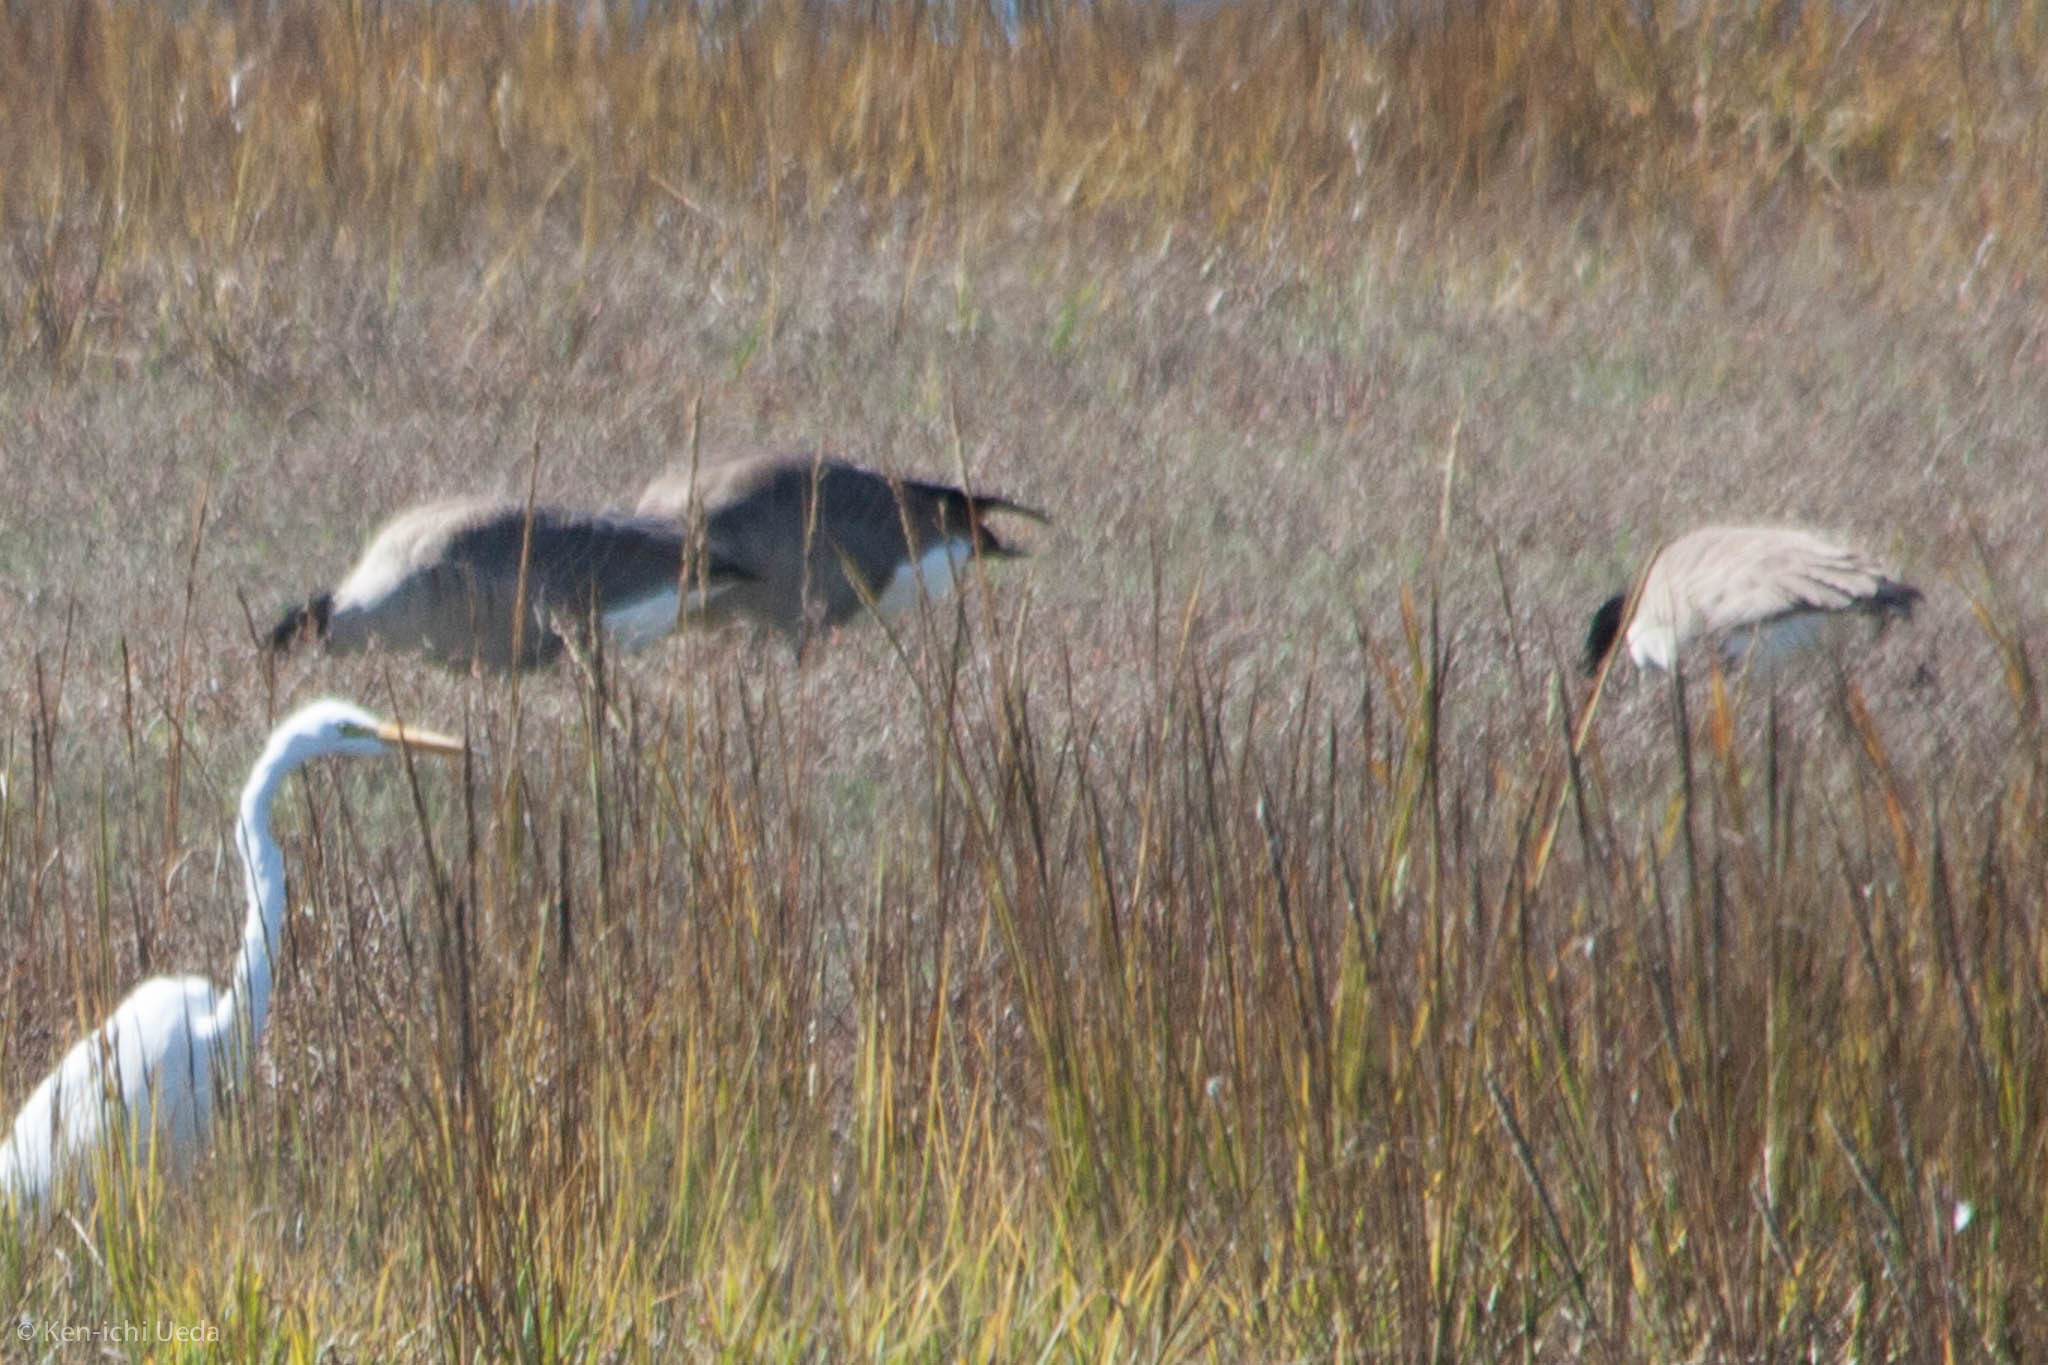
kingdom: Animalia
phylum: Chordata
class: Aves
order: Anseriformes
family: Anatidae
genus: Branta
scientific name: Branta canadensis
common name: Canada goose
